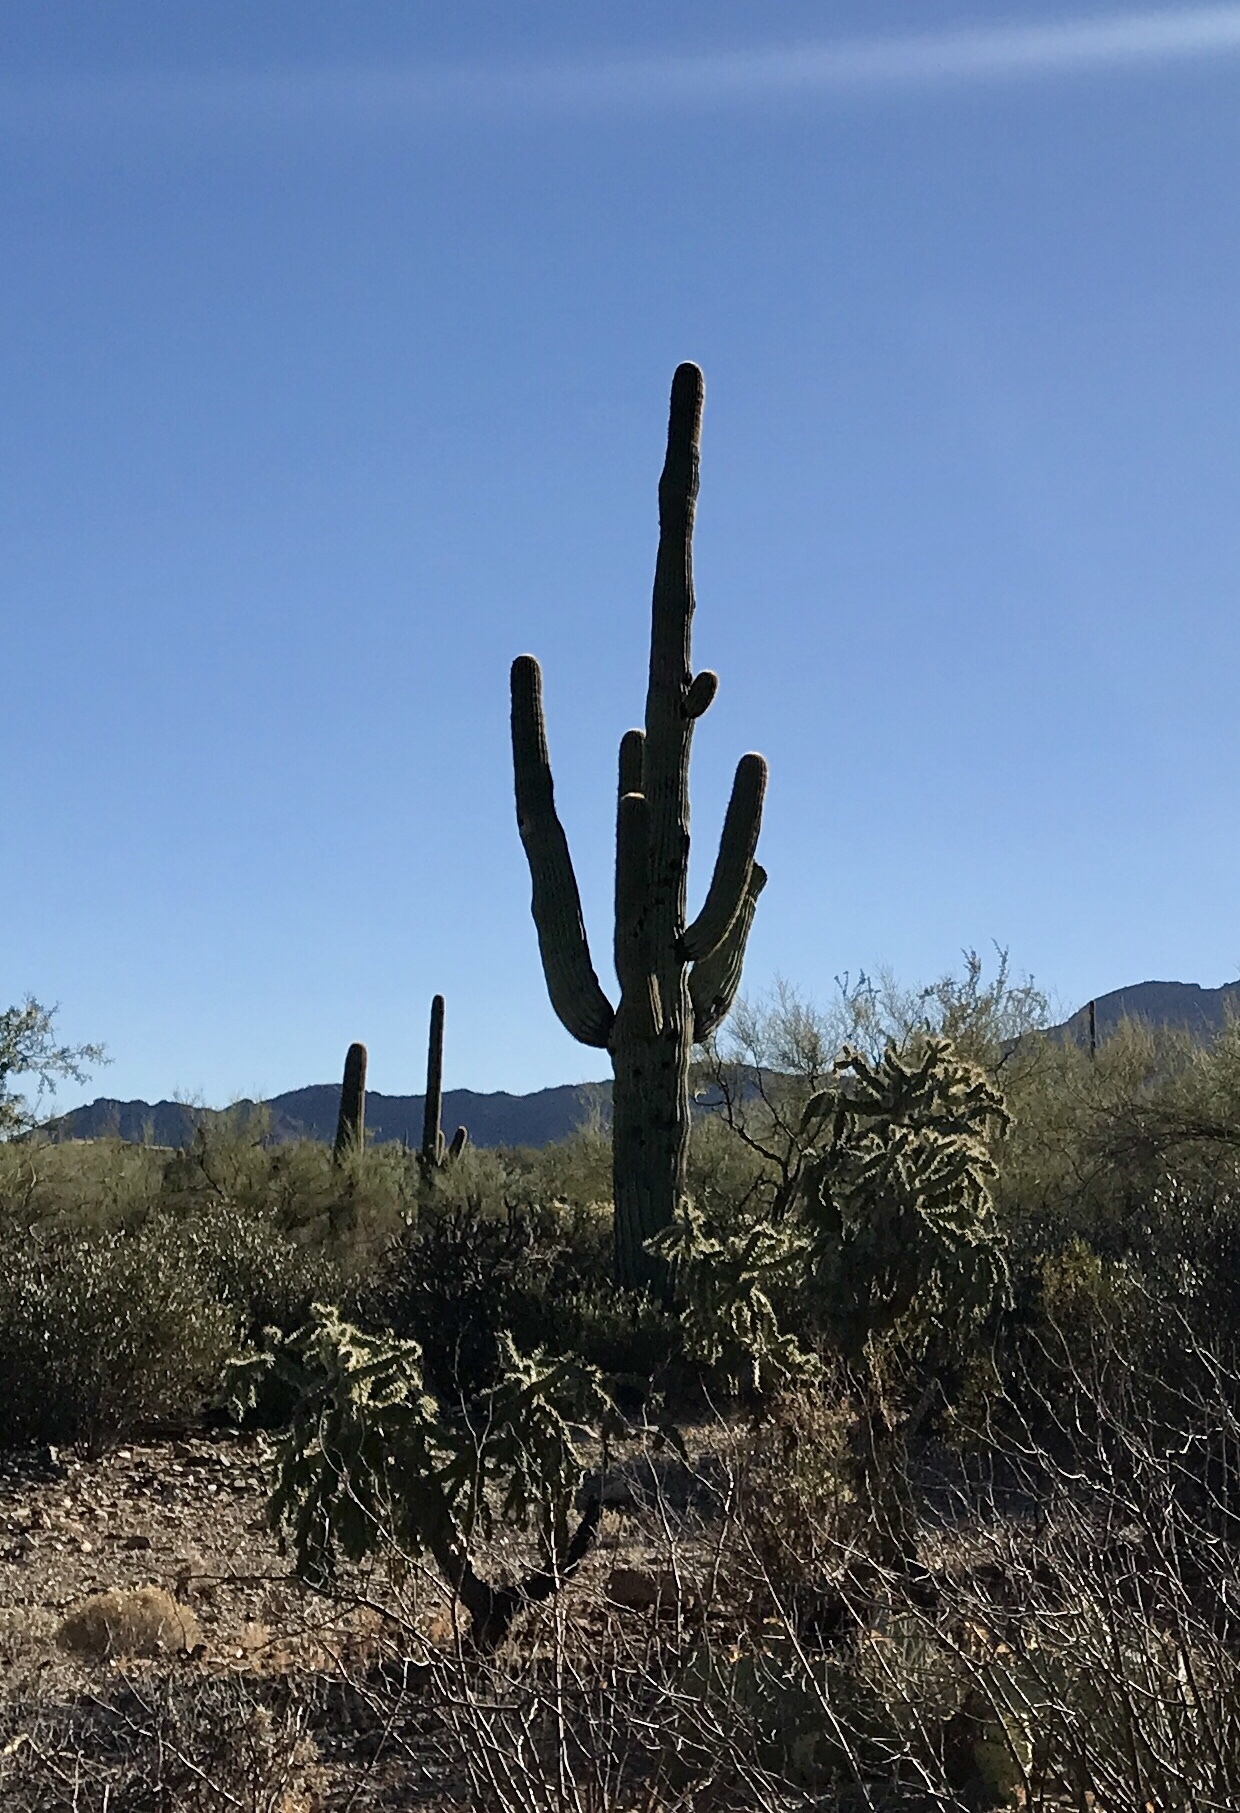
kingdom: Plantae
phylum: Tracheophyta
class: Magnoliopsida
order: Caryophyllales
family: Cactaceae
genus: Carnegiea
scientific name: Carnegiea gigantea
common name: Saguaro
